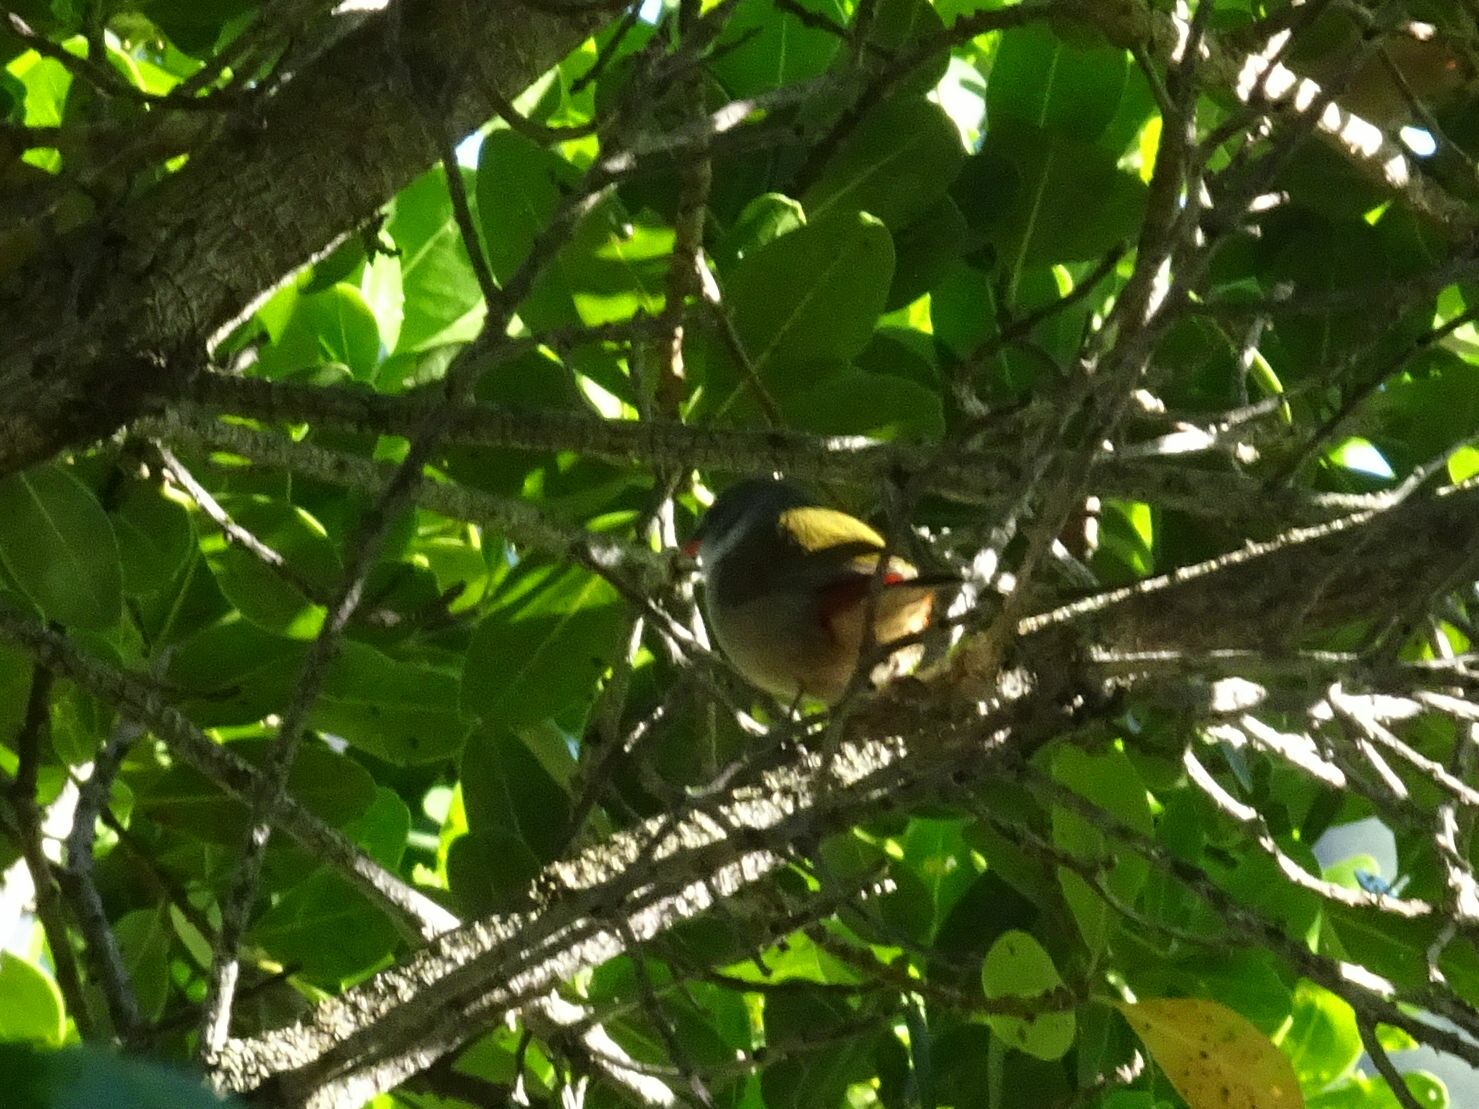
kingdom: Animalia
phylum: Chordata
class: Aves
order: Passeriformes
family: Estrildidae
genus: Coccopygia
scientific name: Coccopygia melanotis
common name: Swee waxbill
